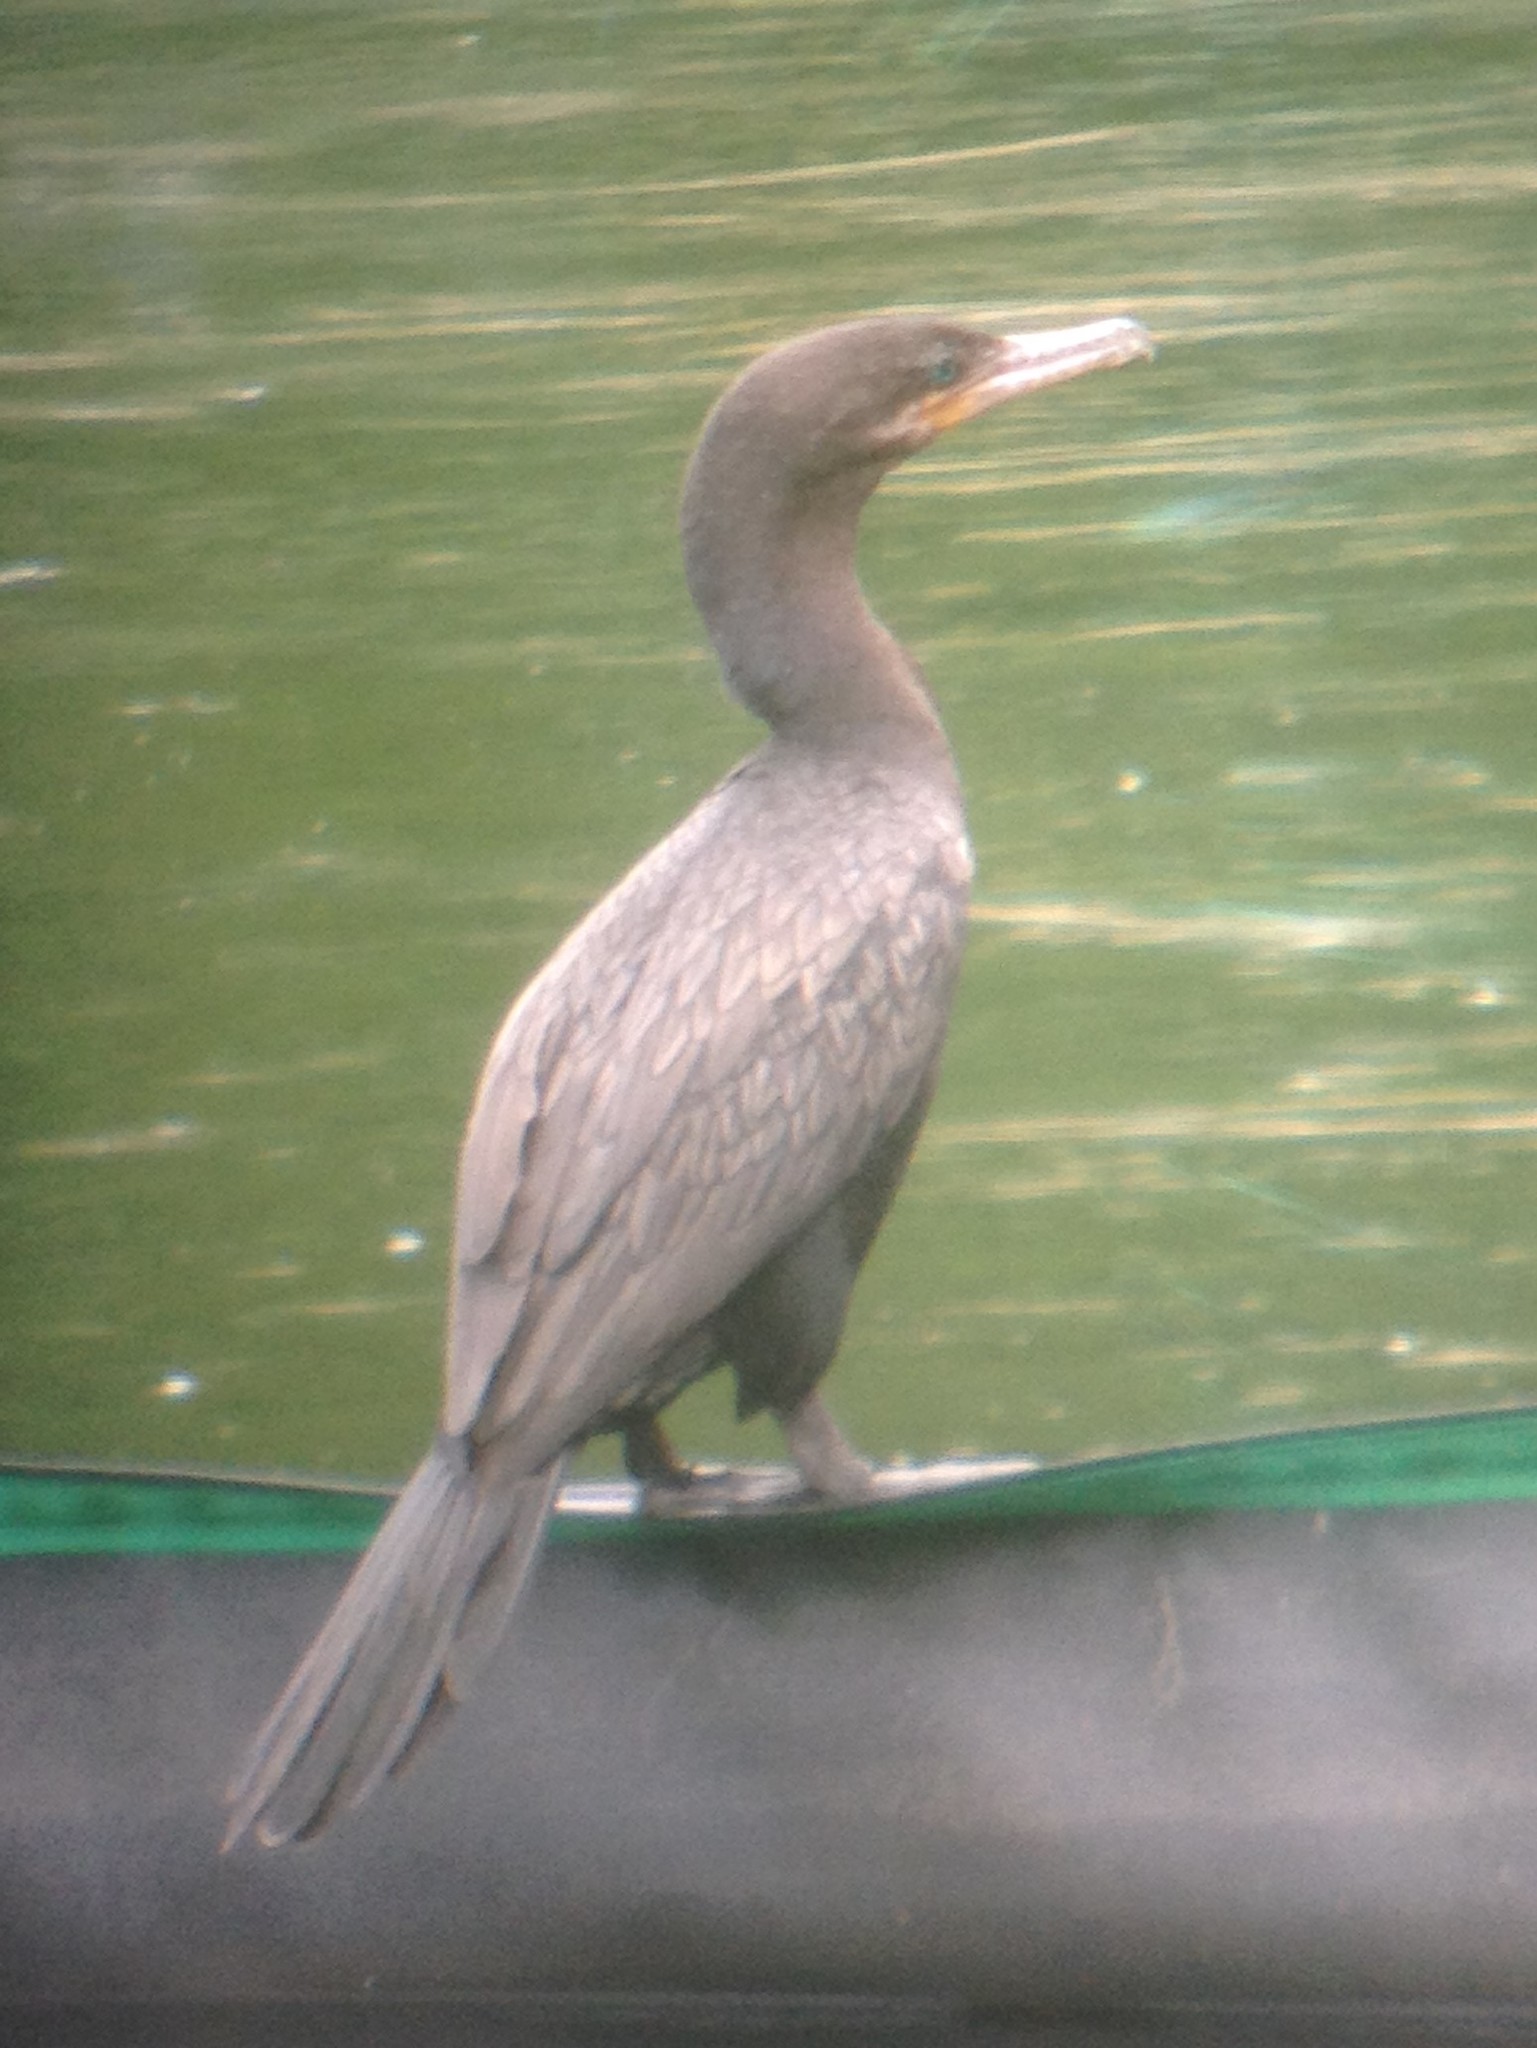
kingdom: Animalia
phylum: Chordata
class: Aves
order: Suliformes
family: Phalacrocoracidae
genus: Phalacrocorax
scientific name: Phalacrocorax brasilianus
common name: Neotropic cormorant
